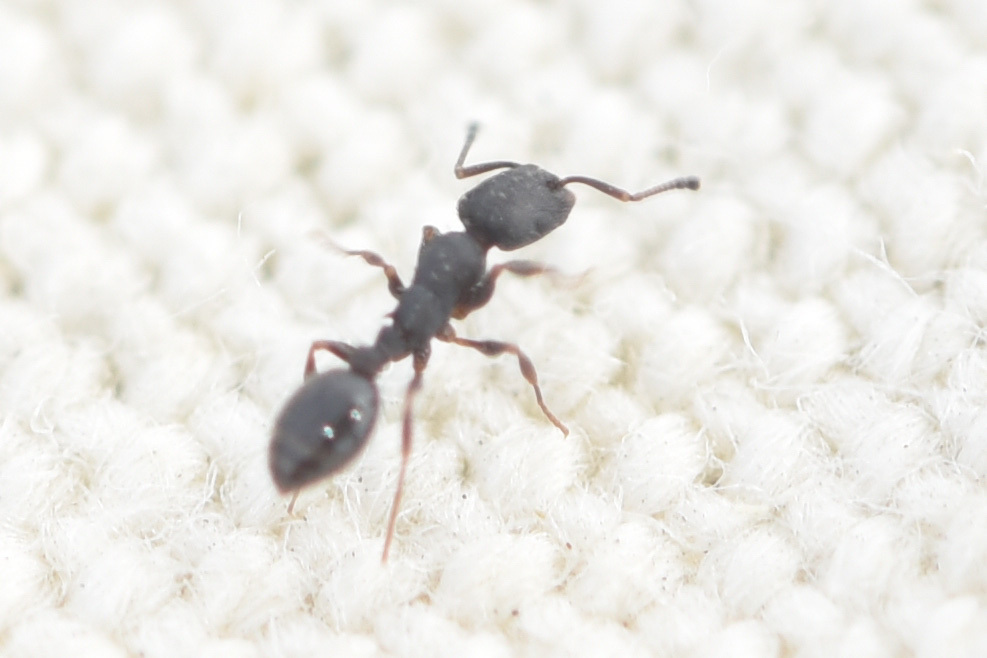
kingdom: Animalia
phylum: Arthropoda
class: Insecta
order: Hymenoptera
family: Formicidae
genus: Temnothorax
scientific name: Temnothorax nevadensis
